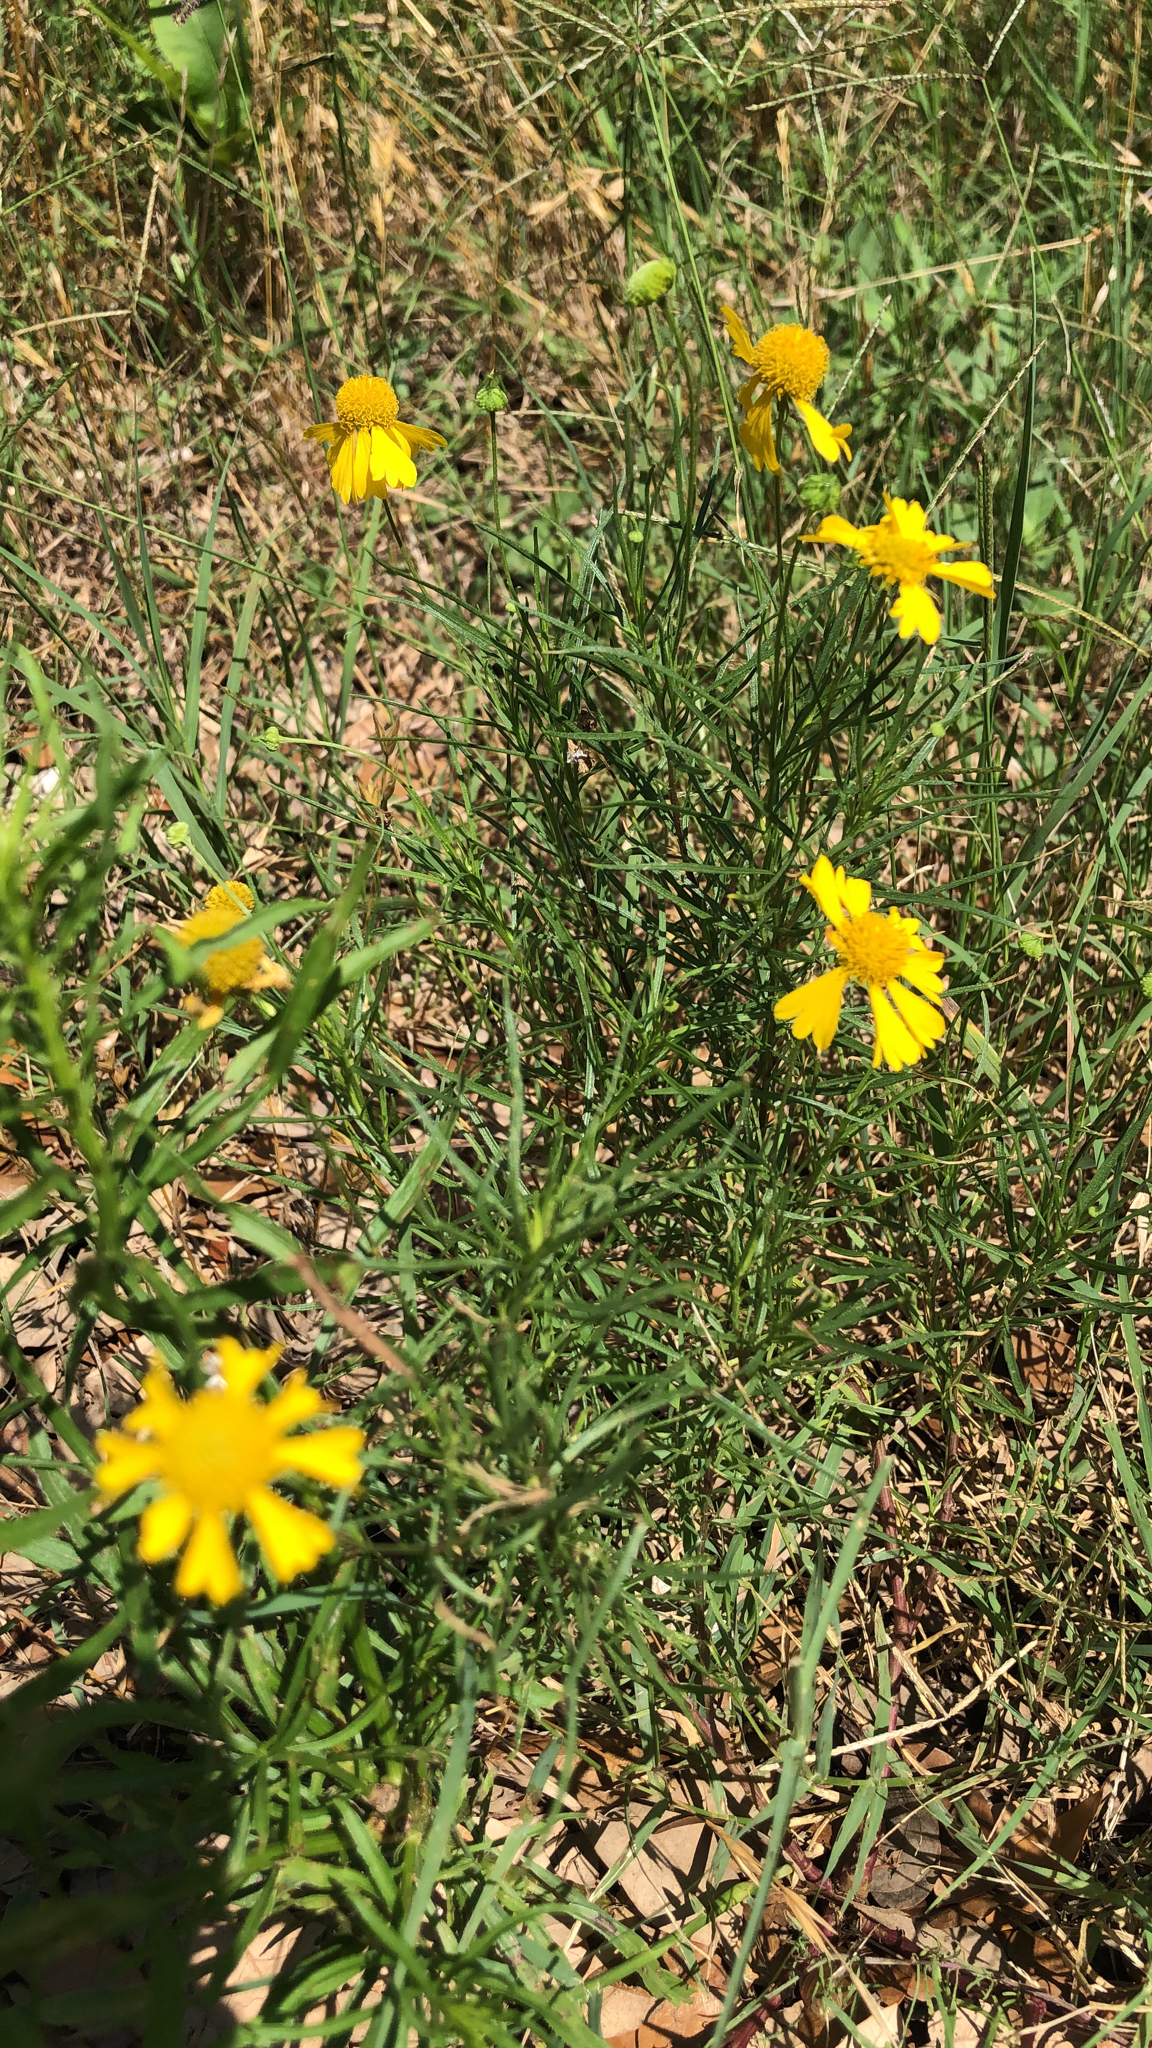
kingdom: Plantae
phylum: Tracheophyta
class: Magnoliopsida
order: Asterales
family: Asteraceae
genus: Helenium
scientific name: Helenium amarum
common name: Bitter sneezeweed
